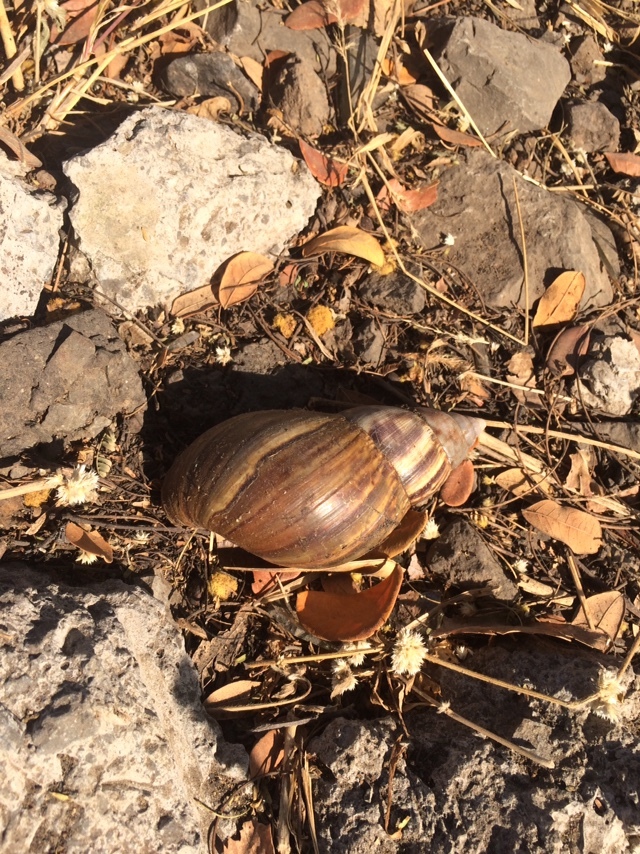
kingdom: Animalia
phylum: Mollusca
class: Gastropoda
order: Stylommatophora
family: Achatinidae
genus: Lissachatina
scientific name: Lissachatina fulica
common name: Giant african snail
